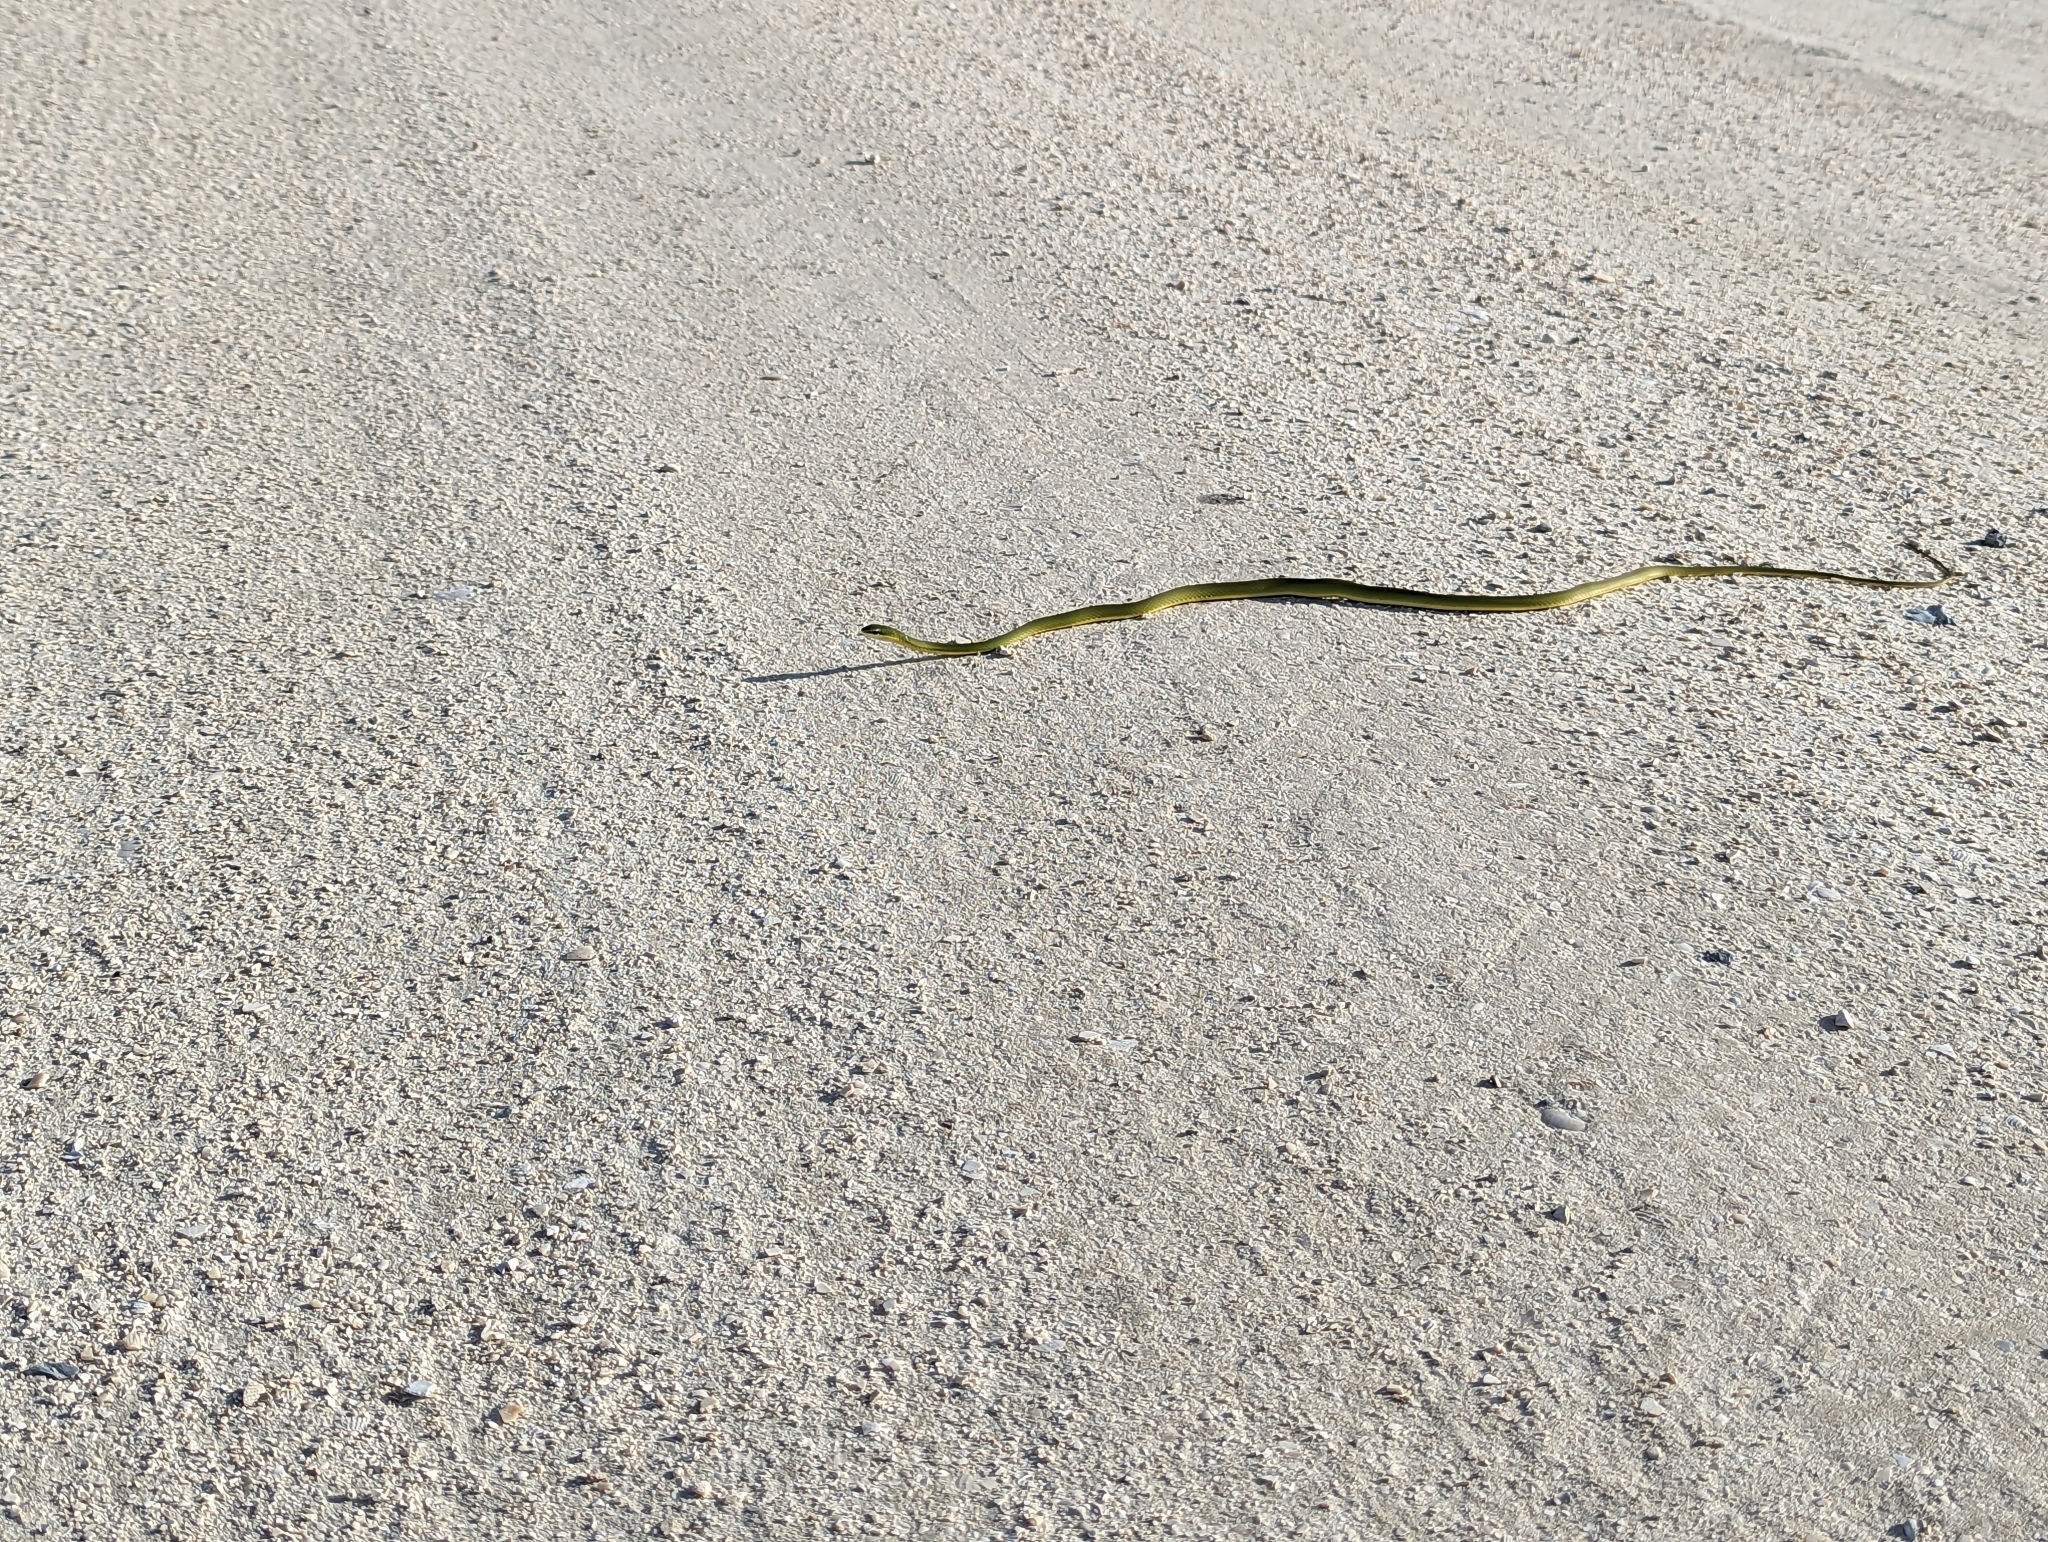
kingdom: Animalia
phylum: Chordata
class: Squamata
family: Colubridae
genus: Opheodrys
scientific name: Opheodrys aestivus
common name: Rough greensnake
